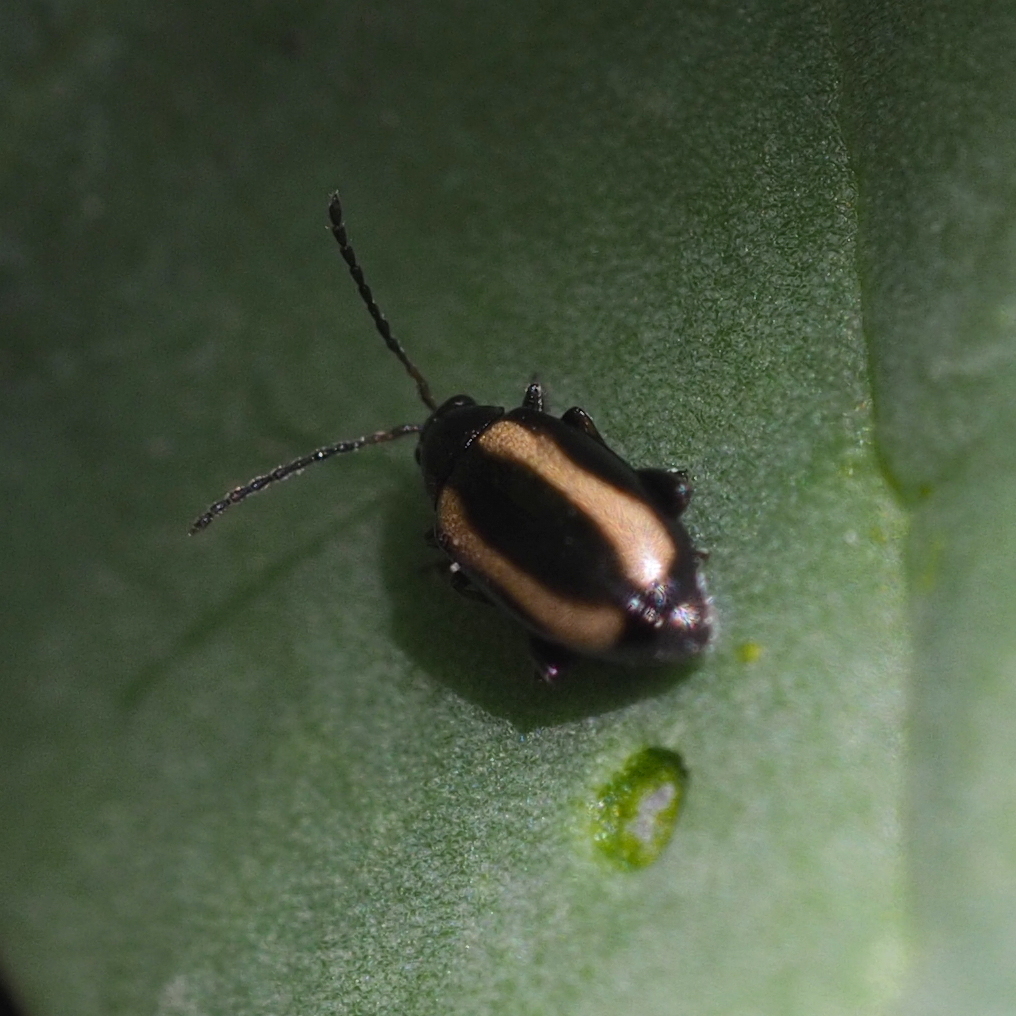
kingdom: Animalia
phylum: Arthropoda
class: Insecta
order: Coleoptera
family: Chrysomelidae
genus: Phyllotreta
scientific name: Phyllotreta vittula
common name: Barley flea beetle
